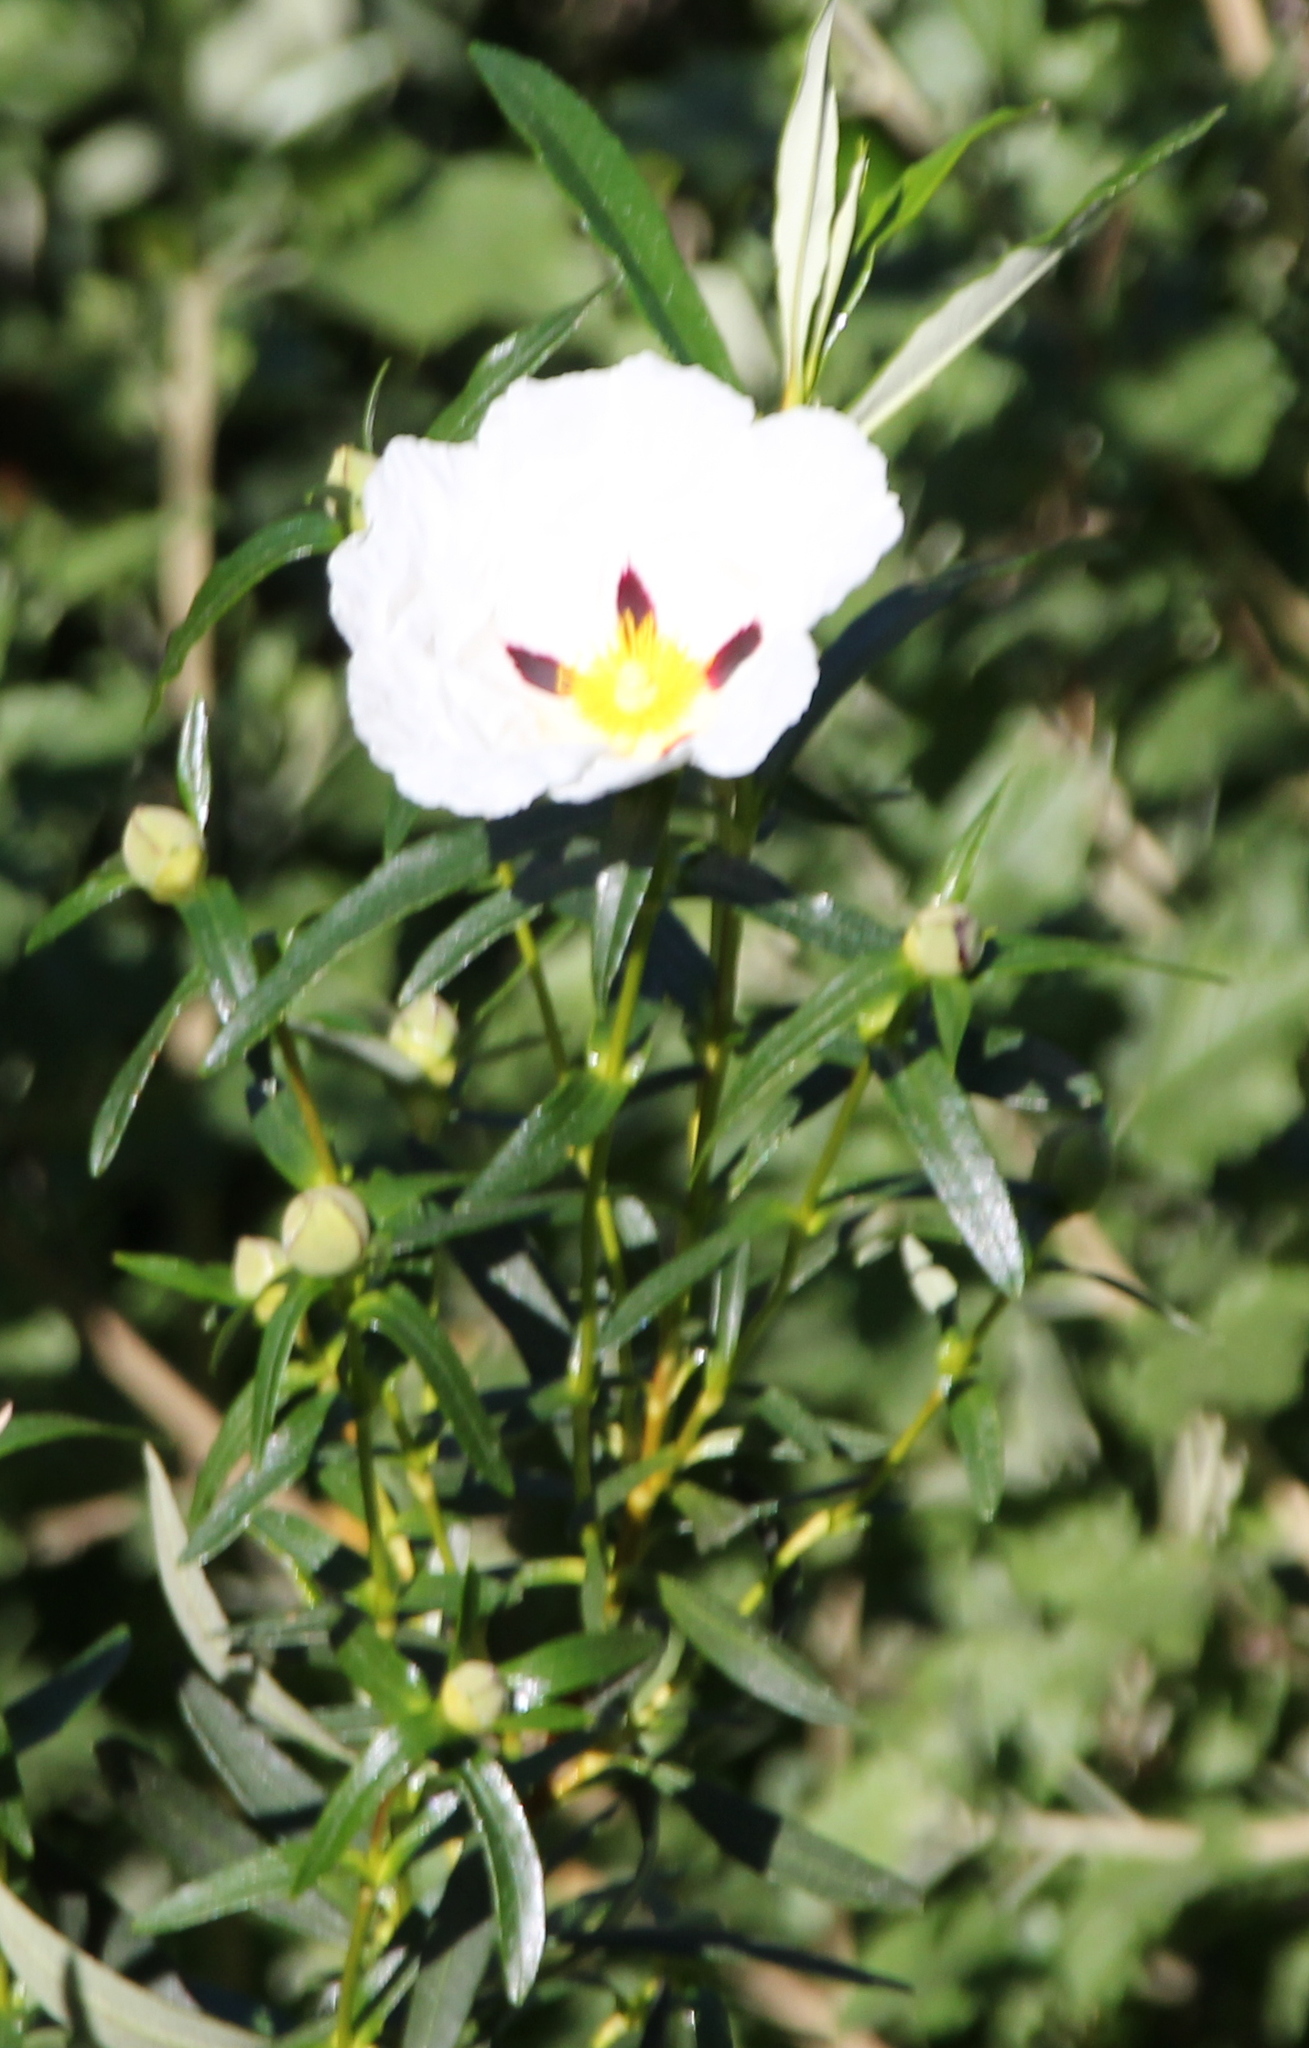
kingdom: Plantae
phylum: Tracheophyta
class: Magnoliopsida
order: Malvales
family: Cistaceae
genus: Cistus
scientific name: Cistus ladanifer
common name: Common gum cistus
